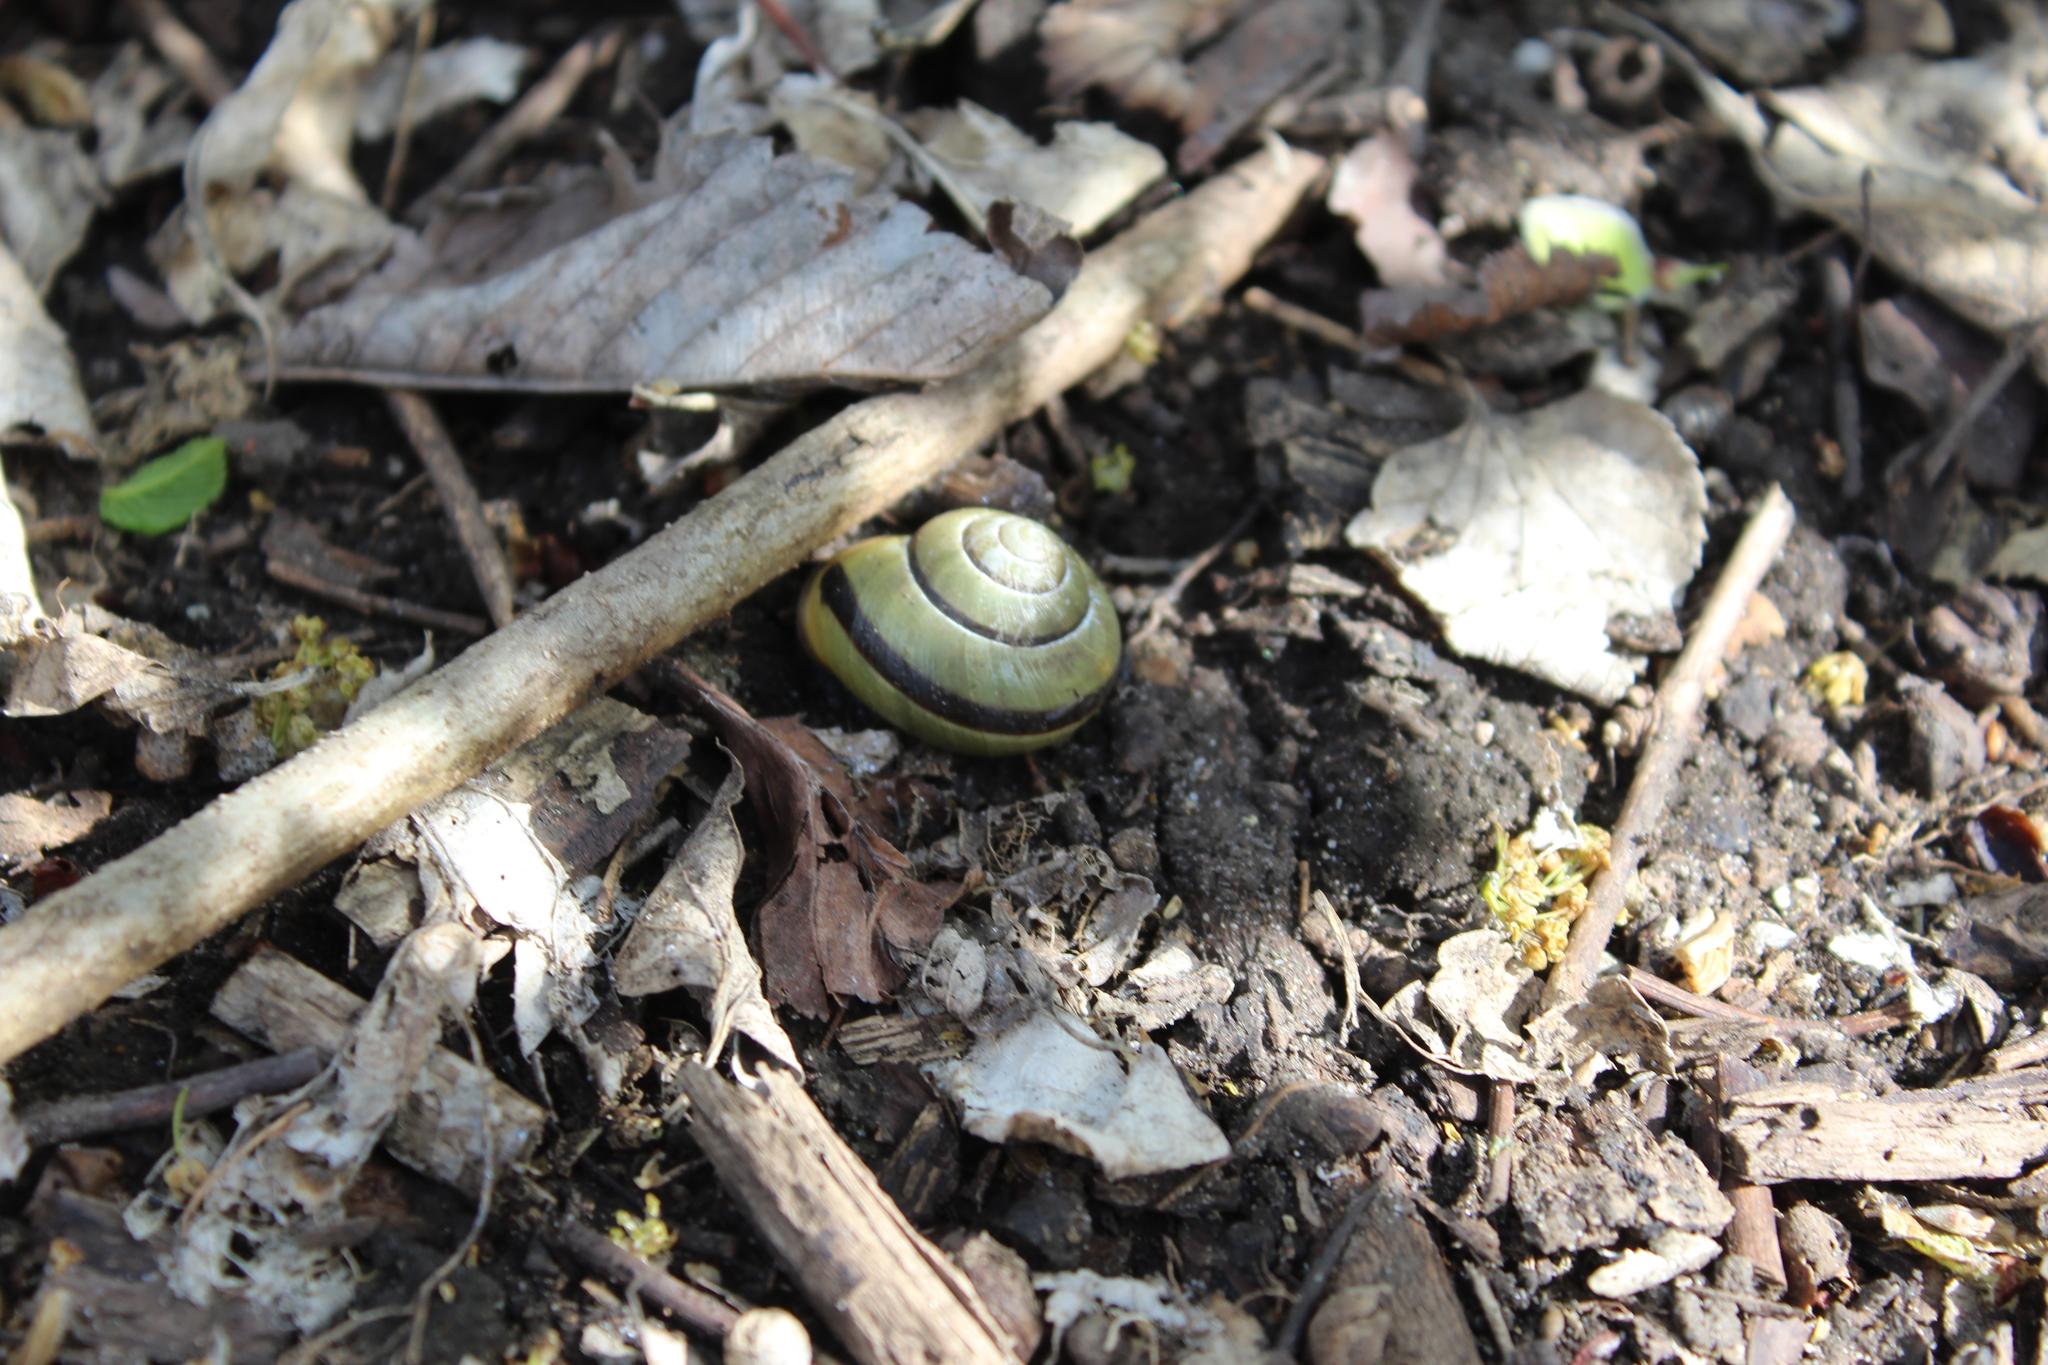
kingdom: Animalia
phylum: Mollusca
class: Gastropoda
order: Stylommatophora
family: Helicidae
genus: Cepaea
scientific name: Cepaea nemoralis
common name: Grovesnail
